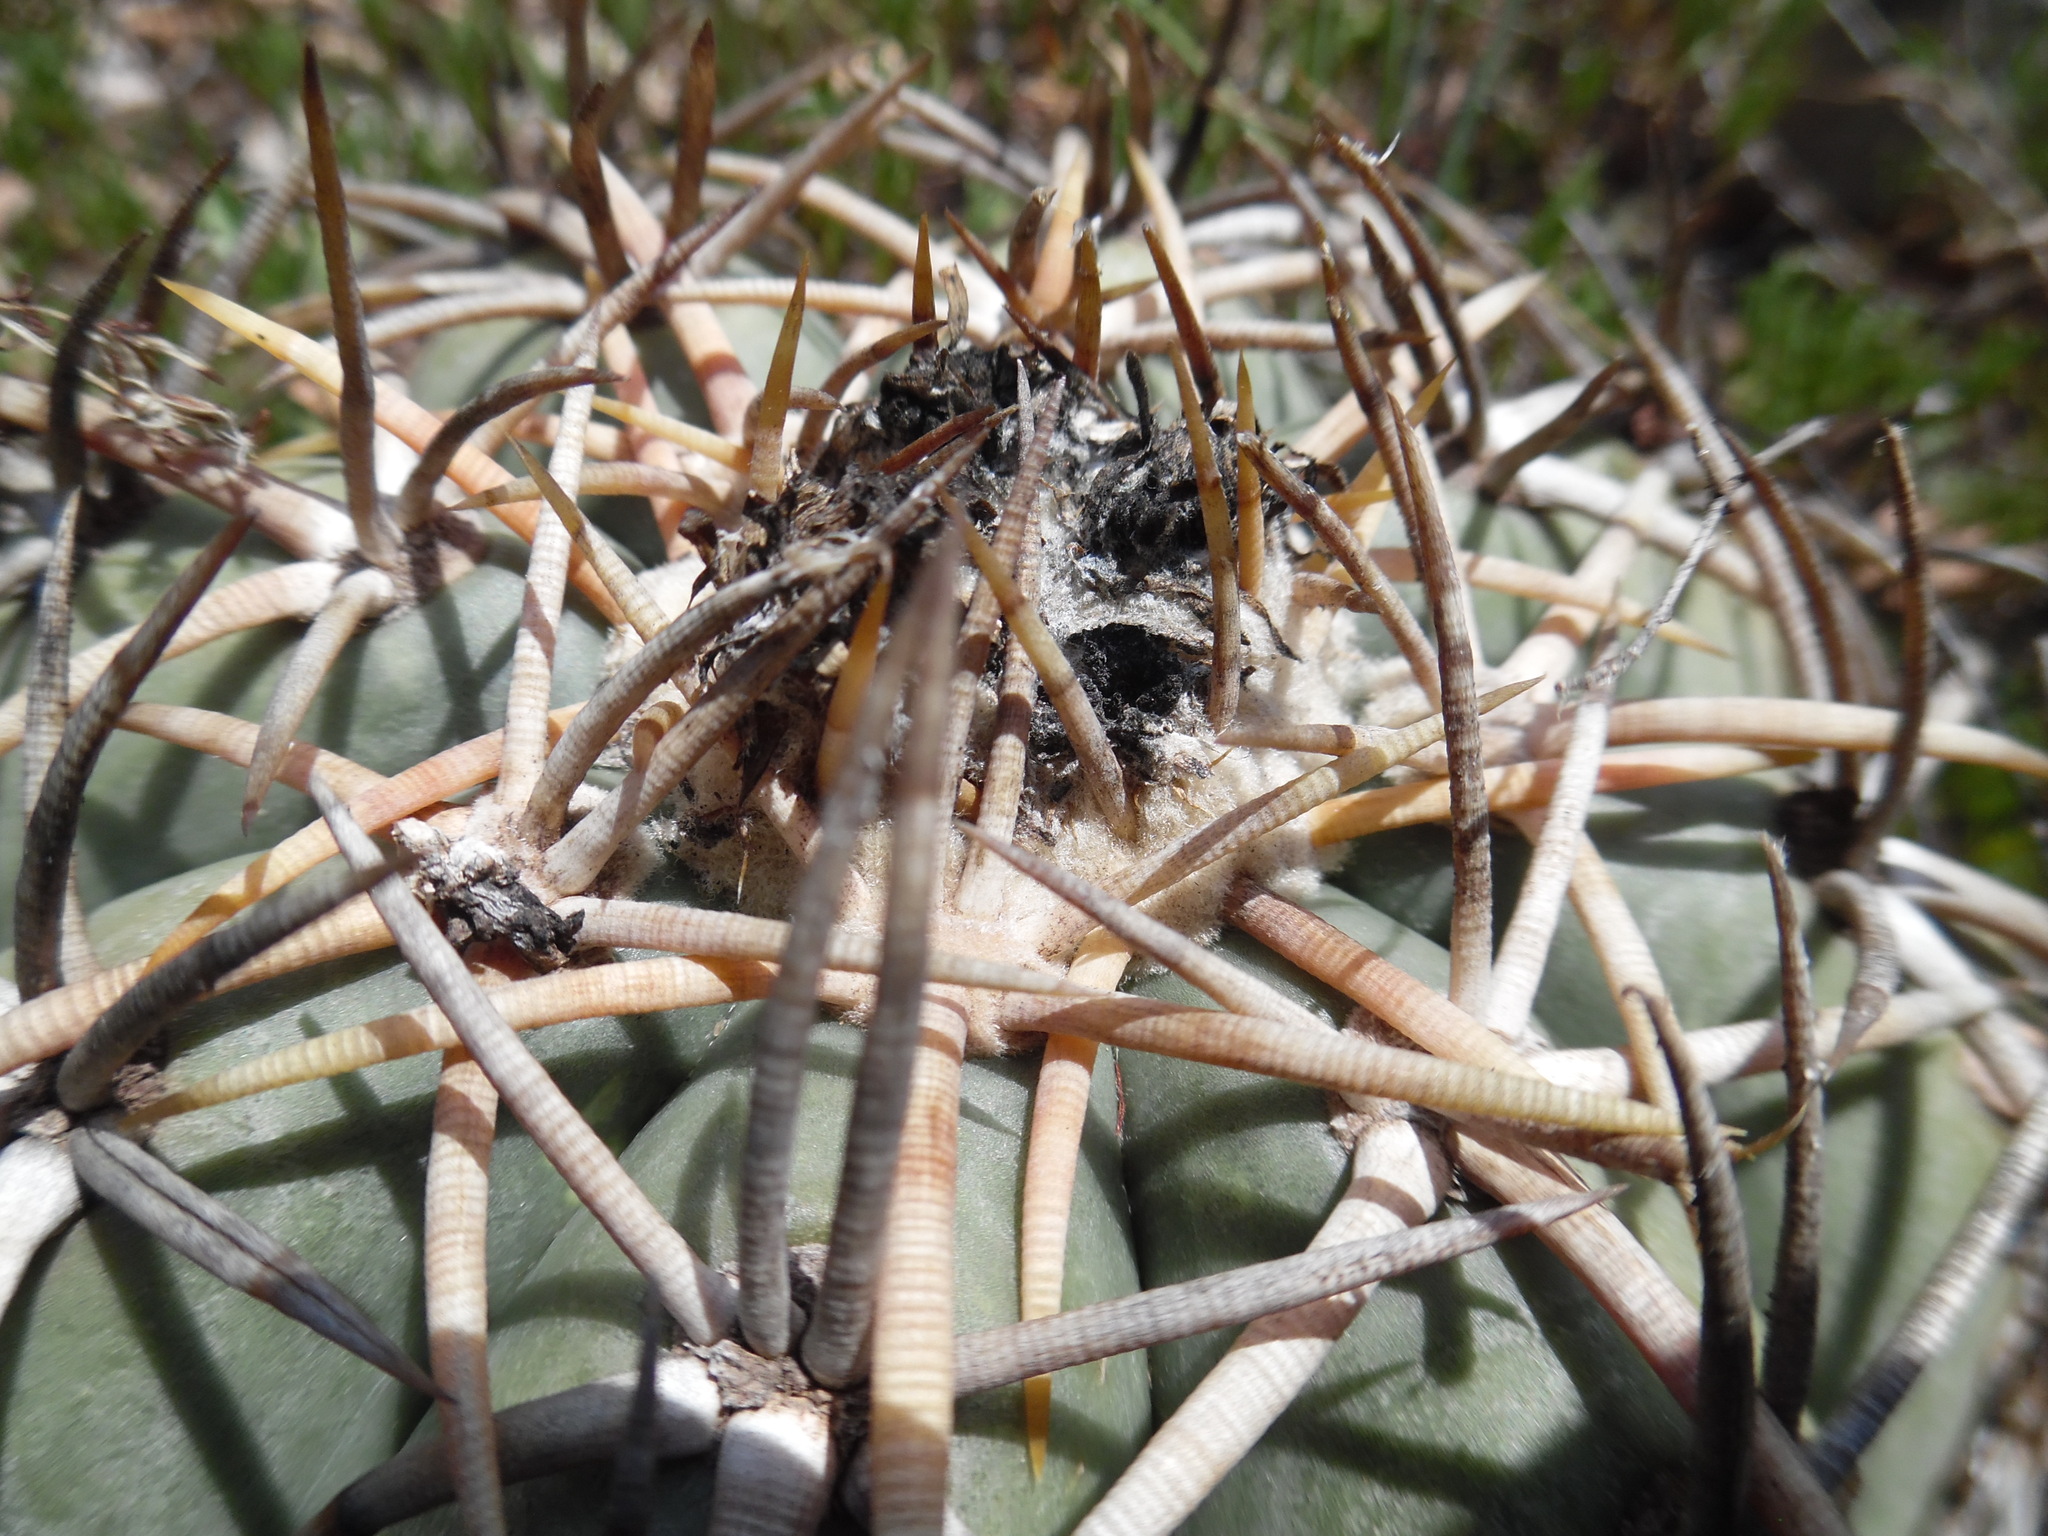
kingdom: Plantae
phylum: Tracheophyta
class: Magnoliopsida
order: Caryophyllales
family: Cactaceae
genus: Echinocactus
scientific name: Echinocactus horizonthalonius
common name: Devilshead
